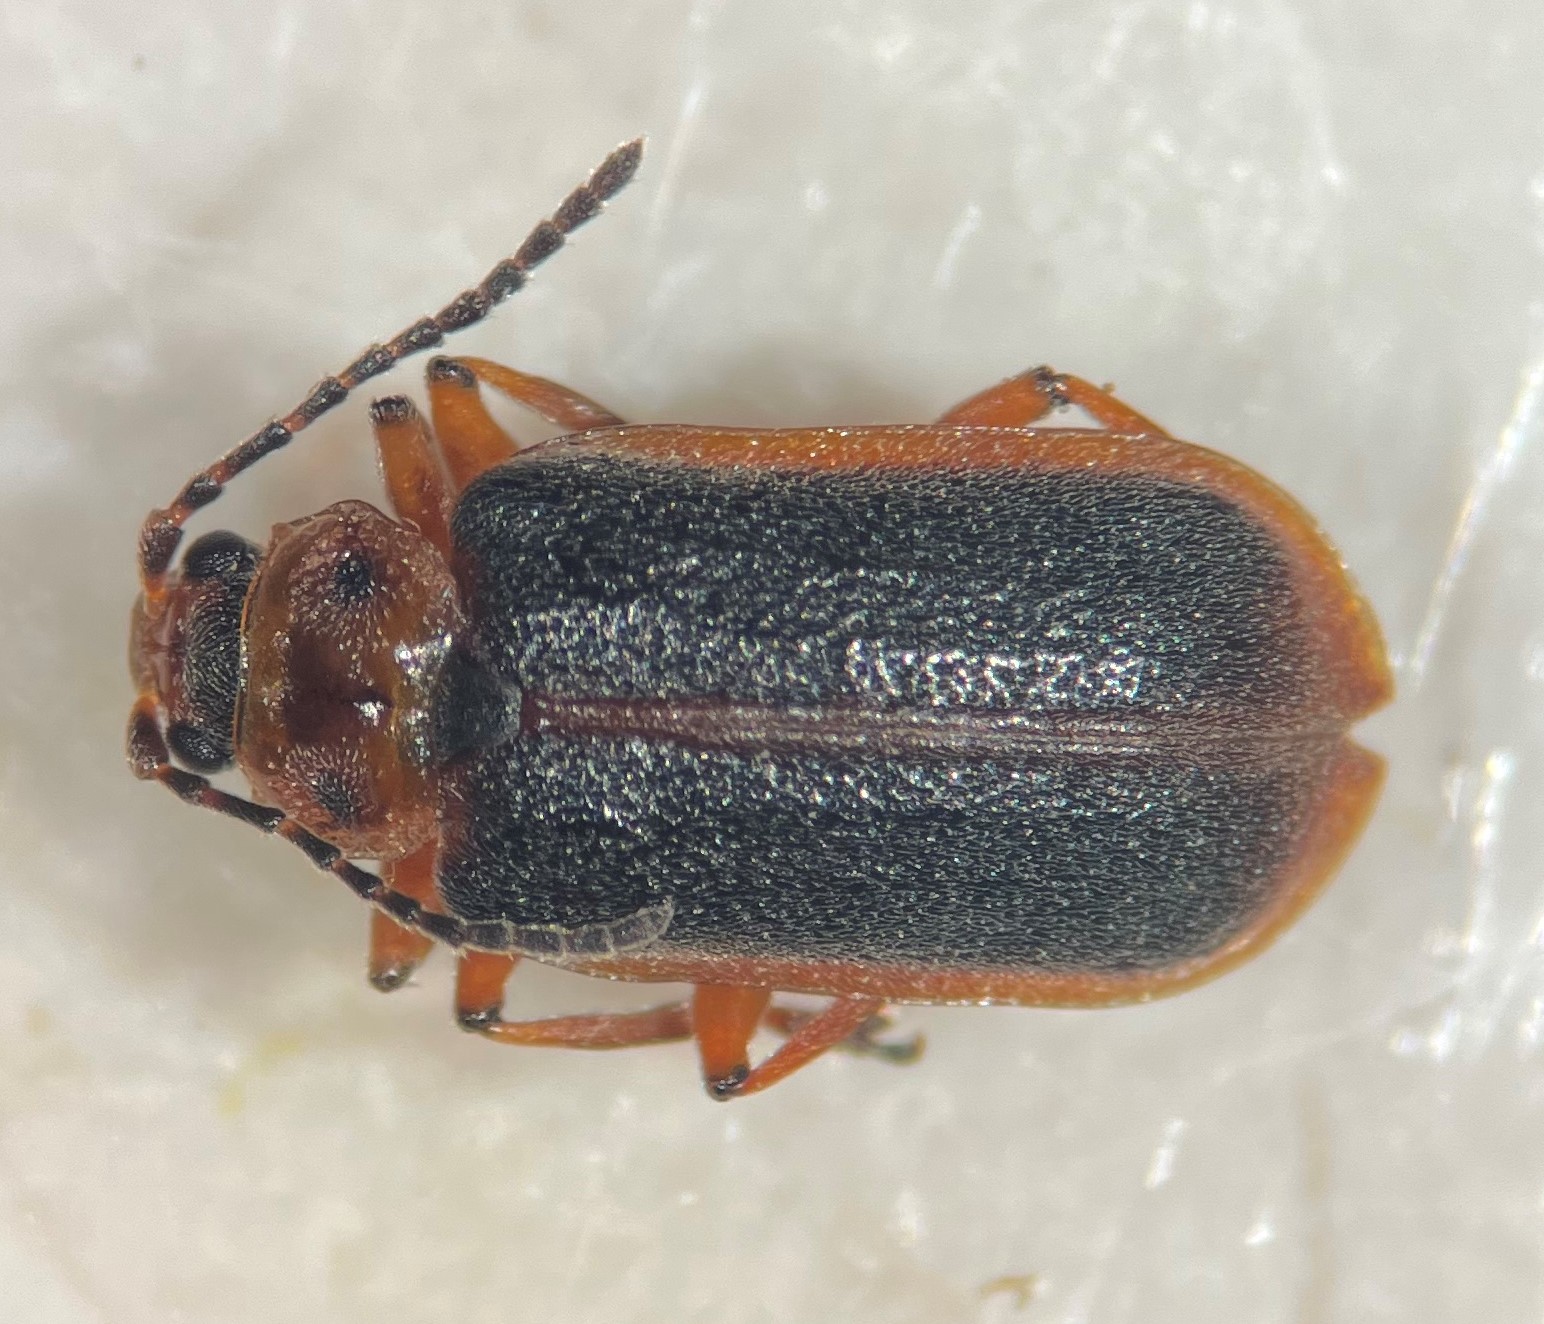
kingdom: Animalia
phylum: Arthropoda
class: Insecta
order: Coleoptera
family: Chrysomelidae
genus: Galerucella
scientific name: Galerucella nymphaeae
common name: Leaf beetle
